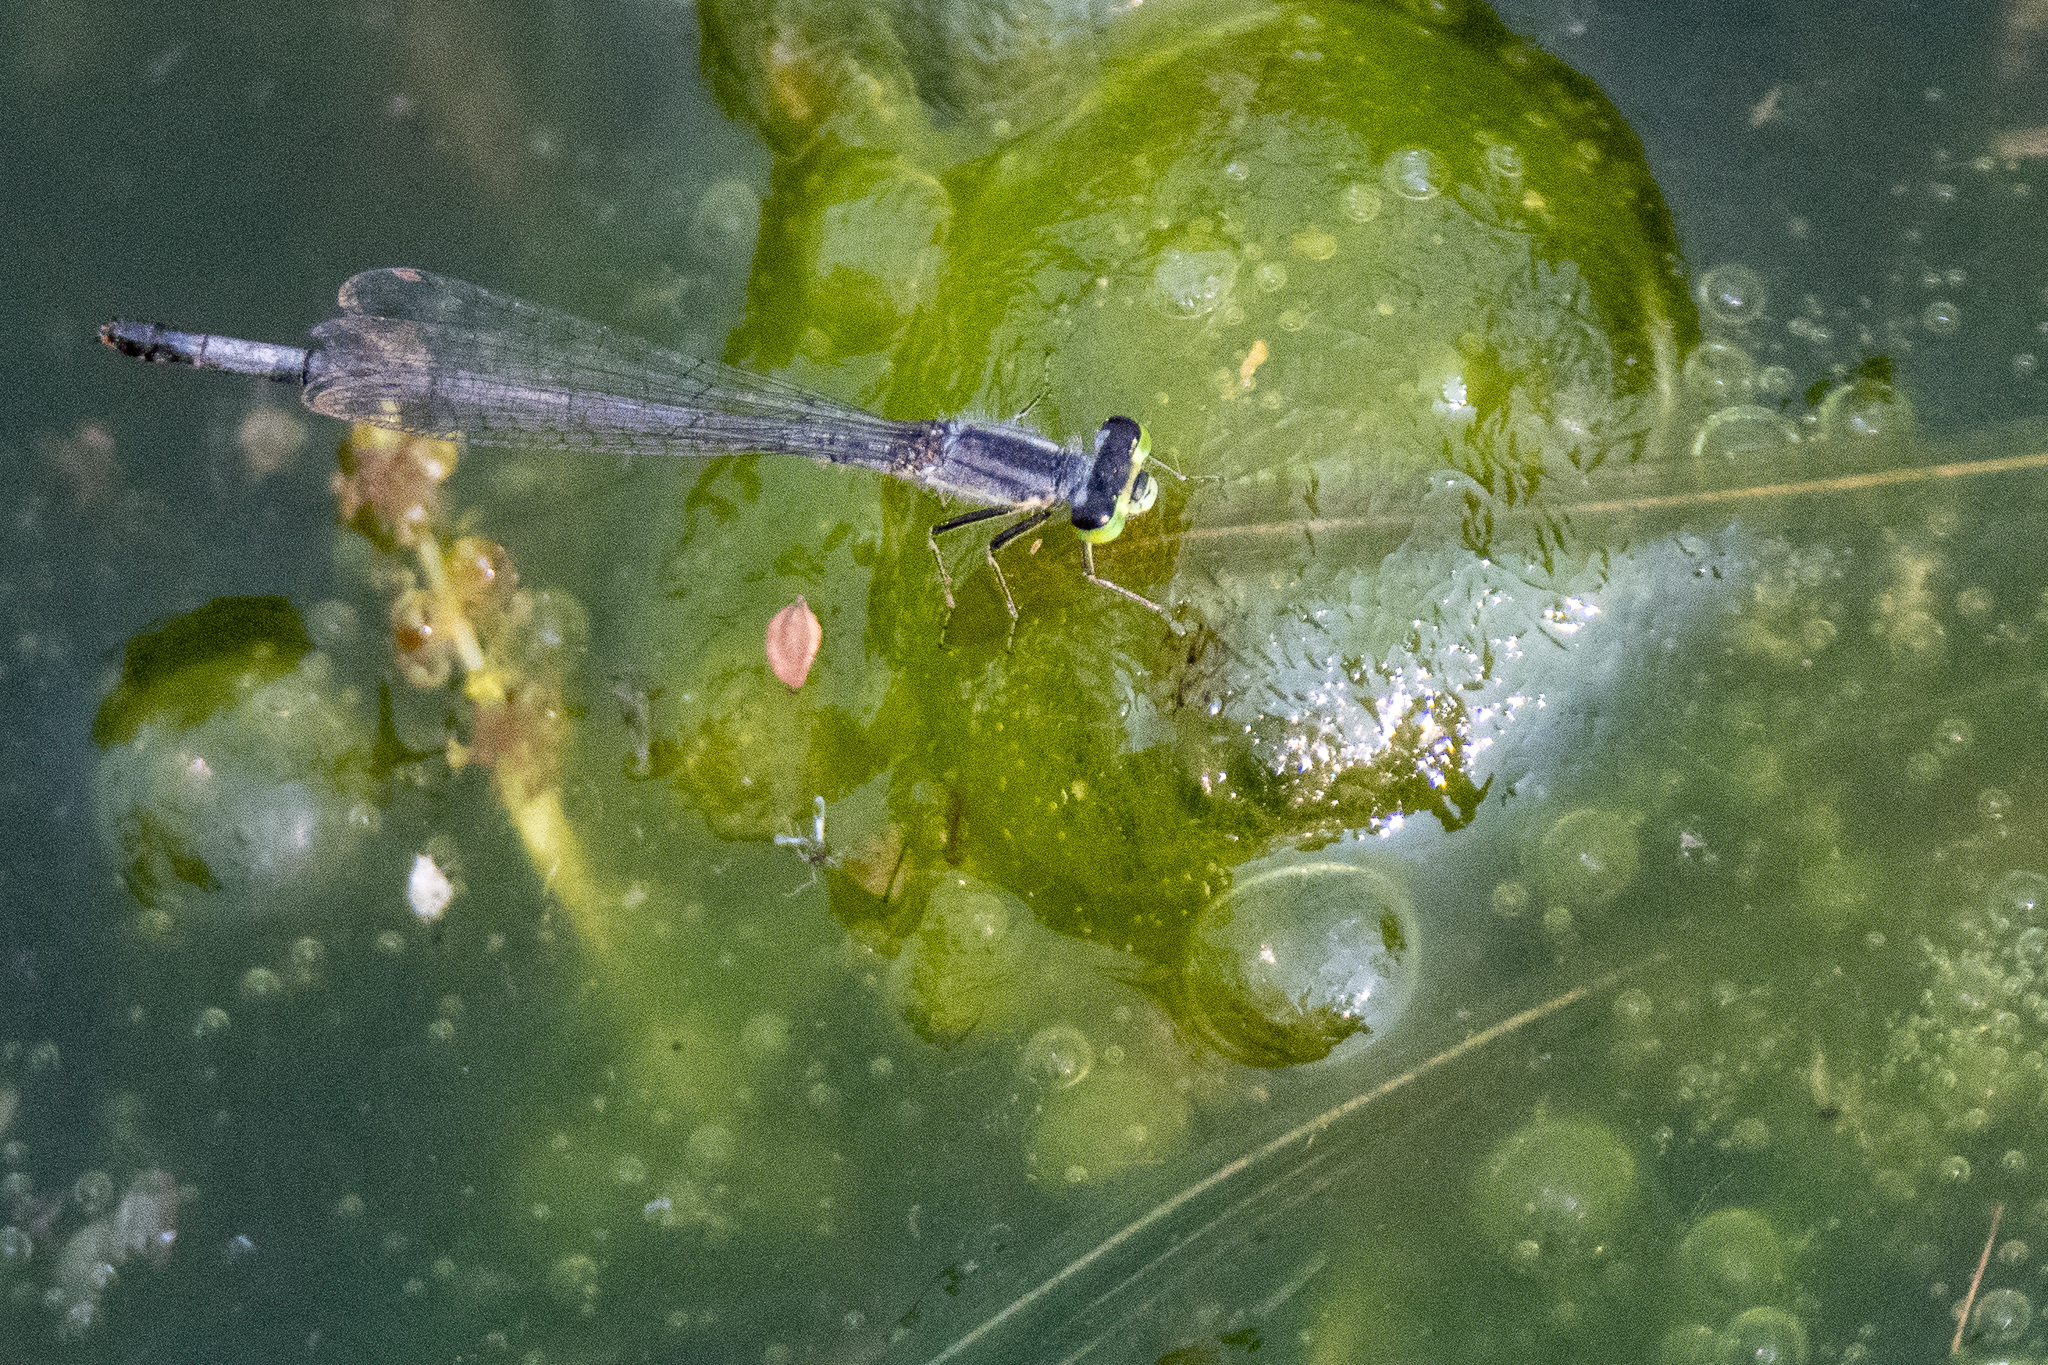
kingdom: Animalia
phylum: Arthropoda
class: Insecta
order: Odonata
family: Coenagrionidae
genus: Ischnura
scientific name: Ischnura verticalis
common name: Eastern forktail
